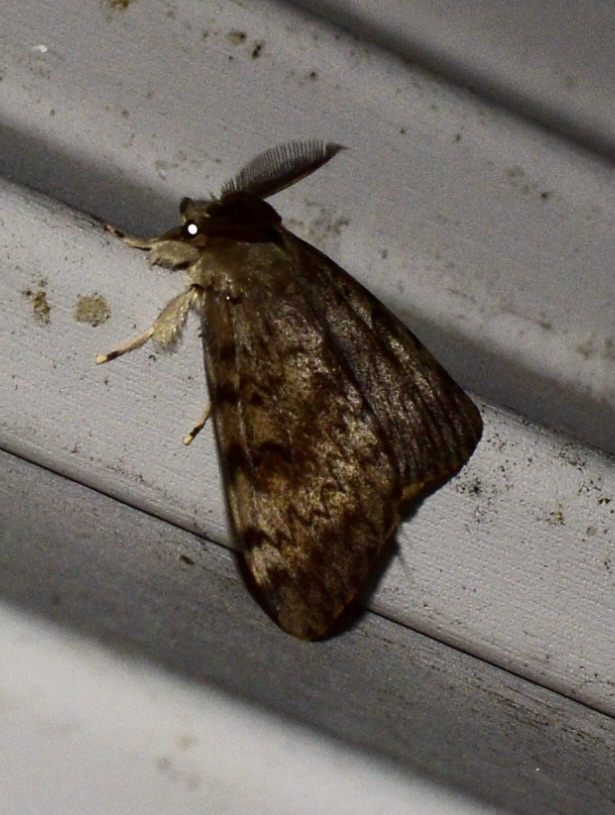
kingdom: Animalia
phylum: Arthropoda
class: Insecta
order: Lepidoptera
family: Erebidae
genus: Lymantria
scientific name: Lymantria dispar
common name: Gypsy moth
